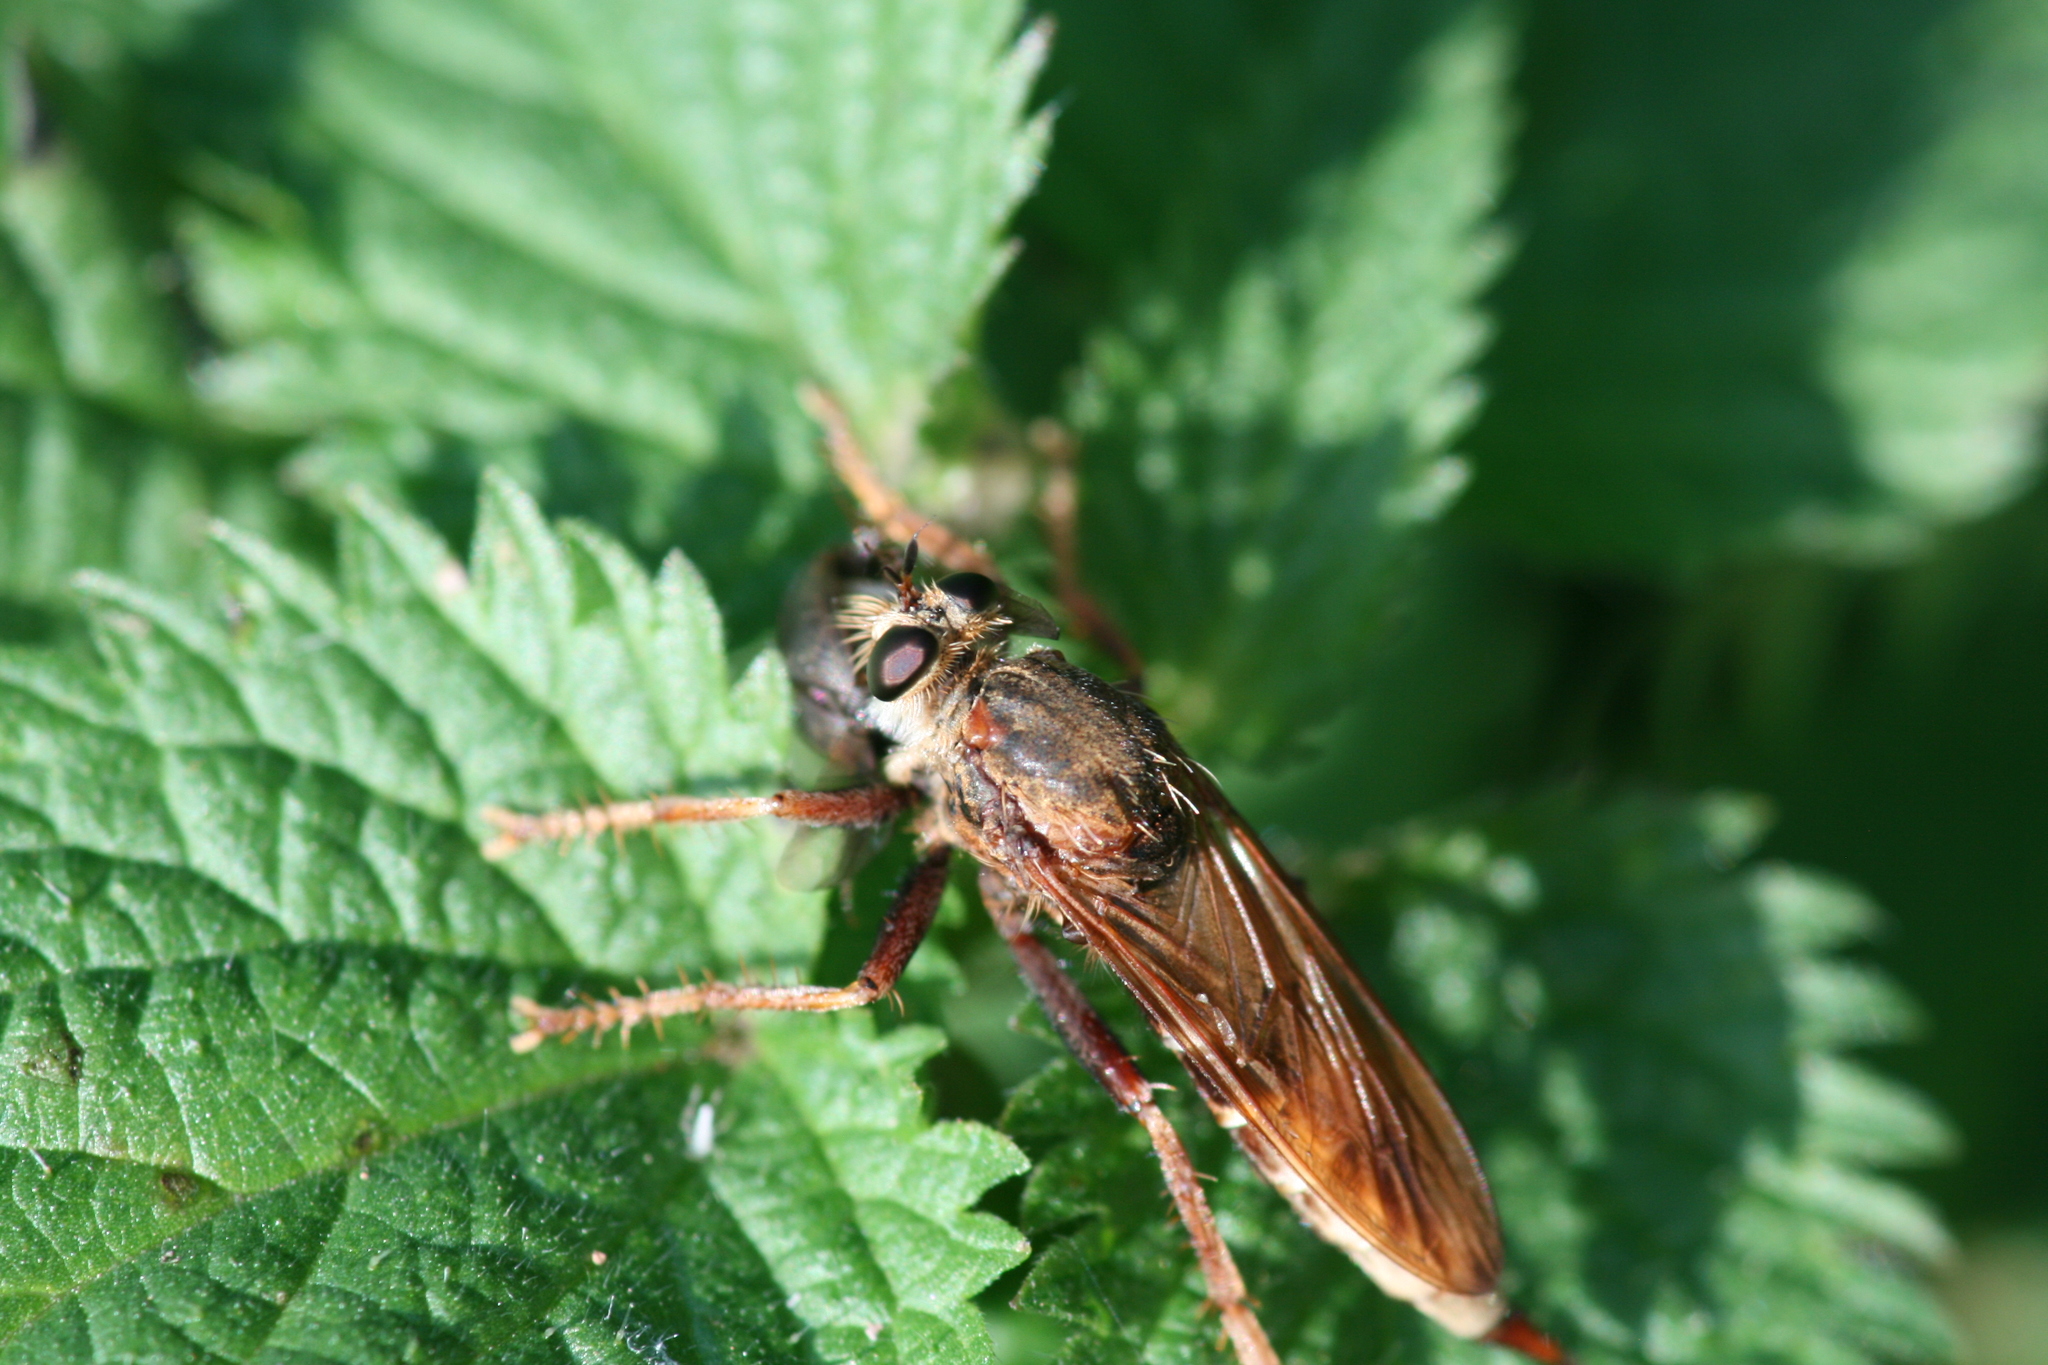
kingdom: Animalia
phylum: Arthropoda
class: Insecta
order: Diptera
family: Asilidae
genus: Asilus
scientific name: Asilus crabroniformis
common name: Hornet robberfly
